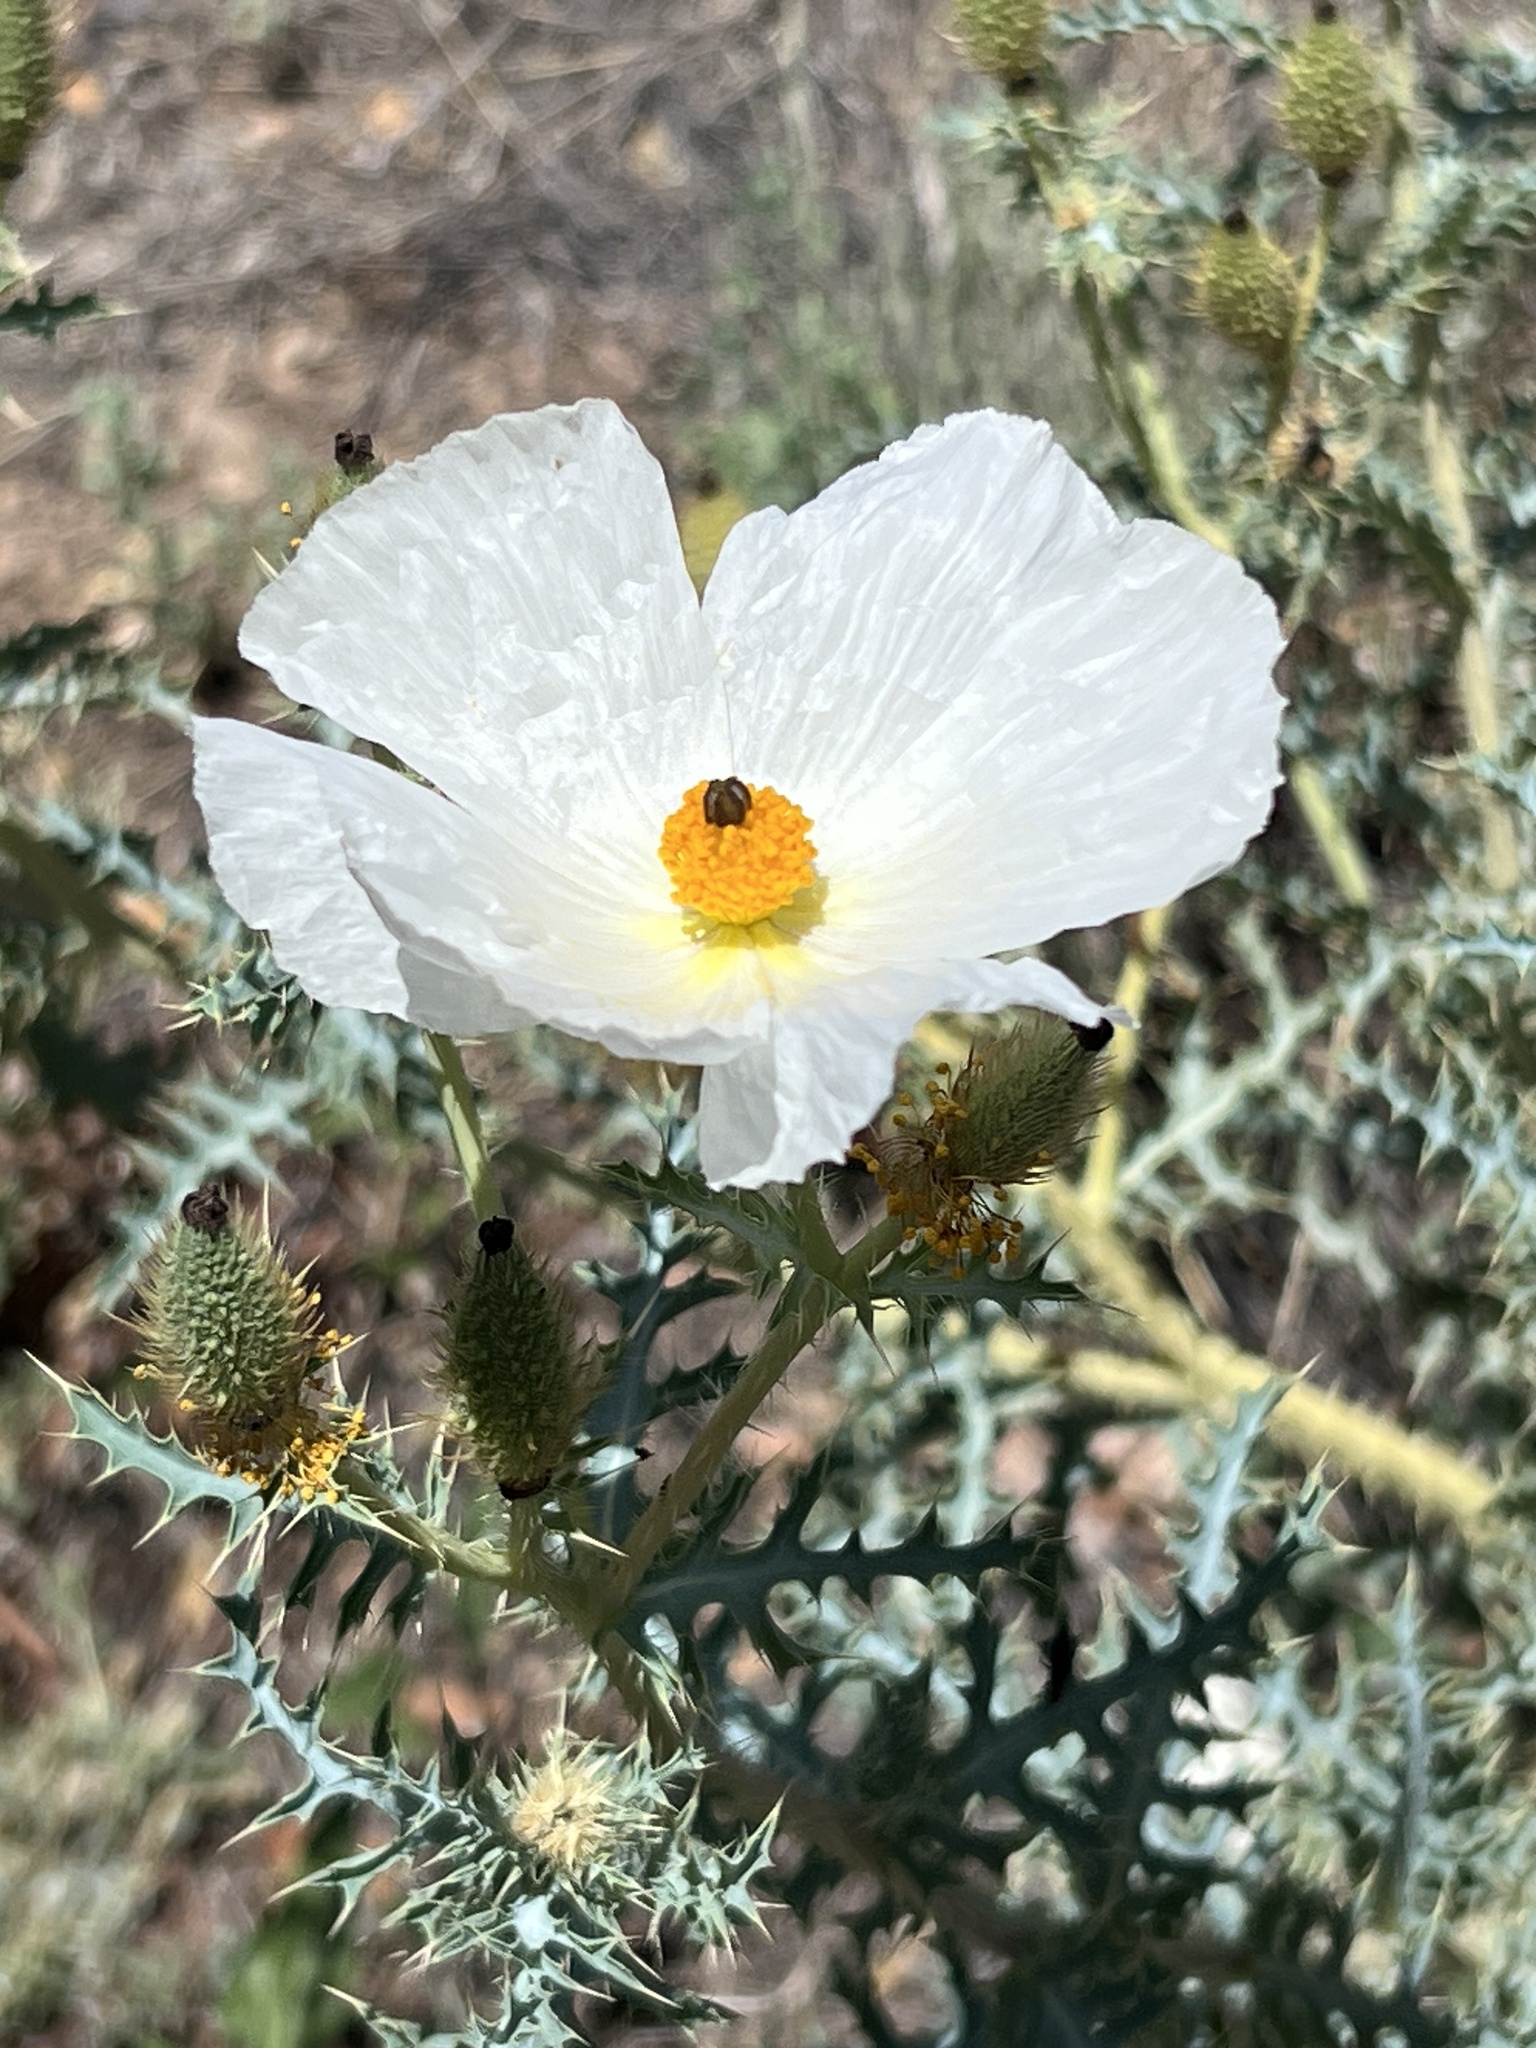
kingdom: Plantae
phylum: Tracheophyta
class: Magnoliopsida
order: Ranunculales
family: Papaveraceae
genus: Argemone
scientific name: Argemone pleiacantha
